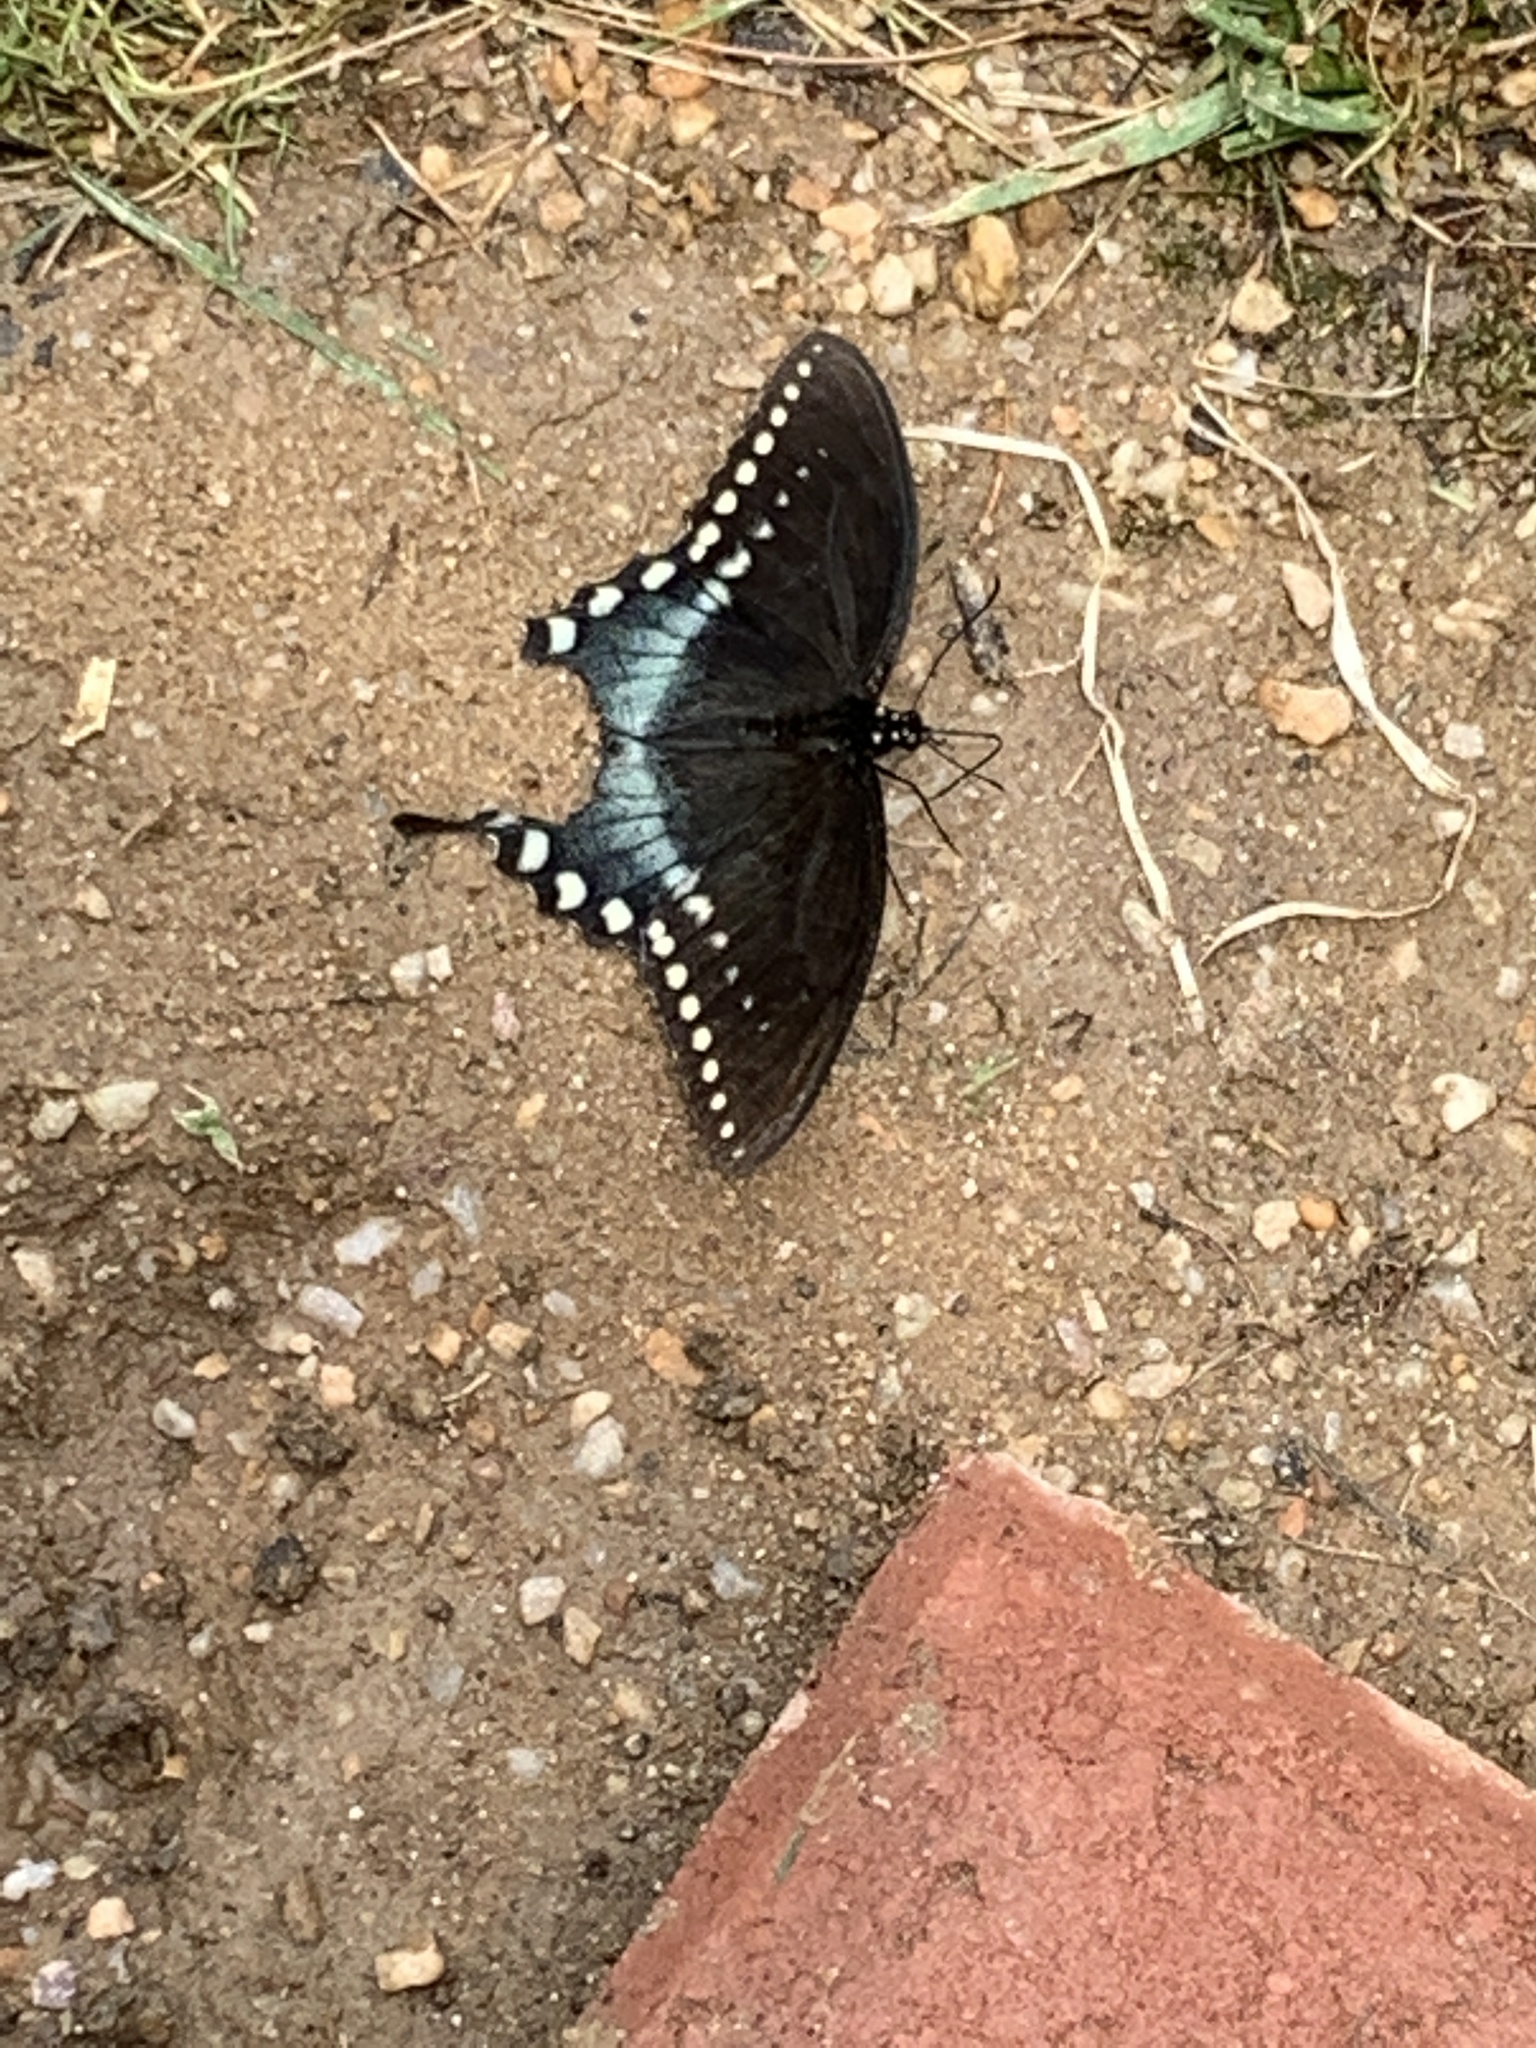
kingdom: Animalia
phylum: Arthropoda
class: Insecta
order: Lepidoptera
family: Papilionidae
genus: Papilio
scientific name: Papilio troilus
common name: Spicebush swallowtail
